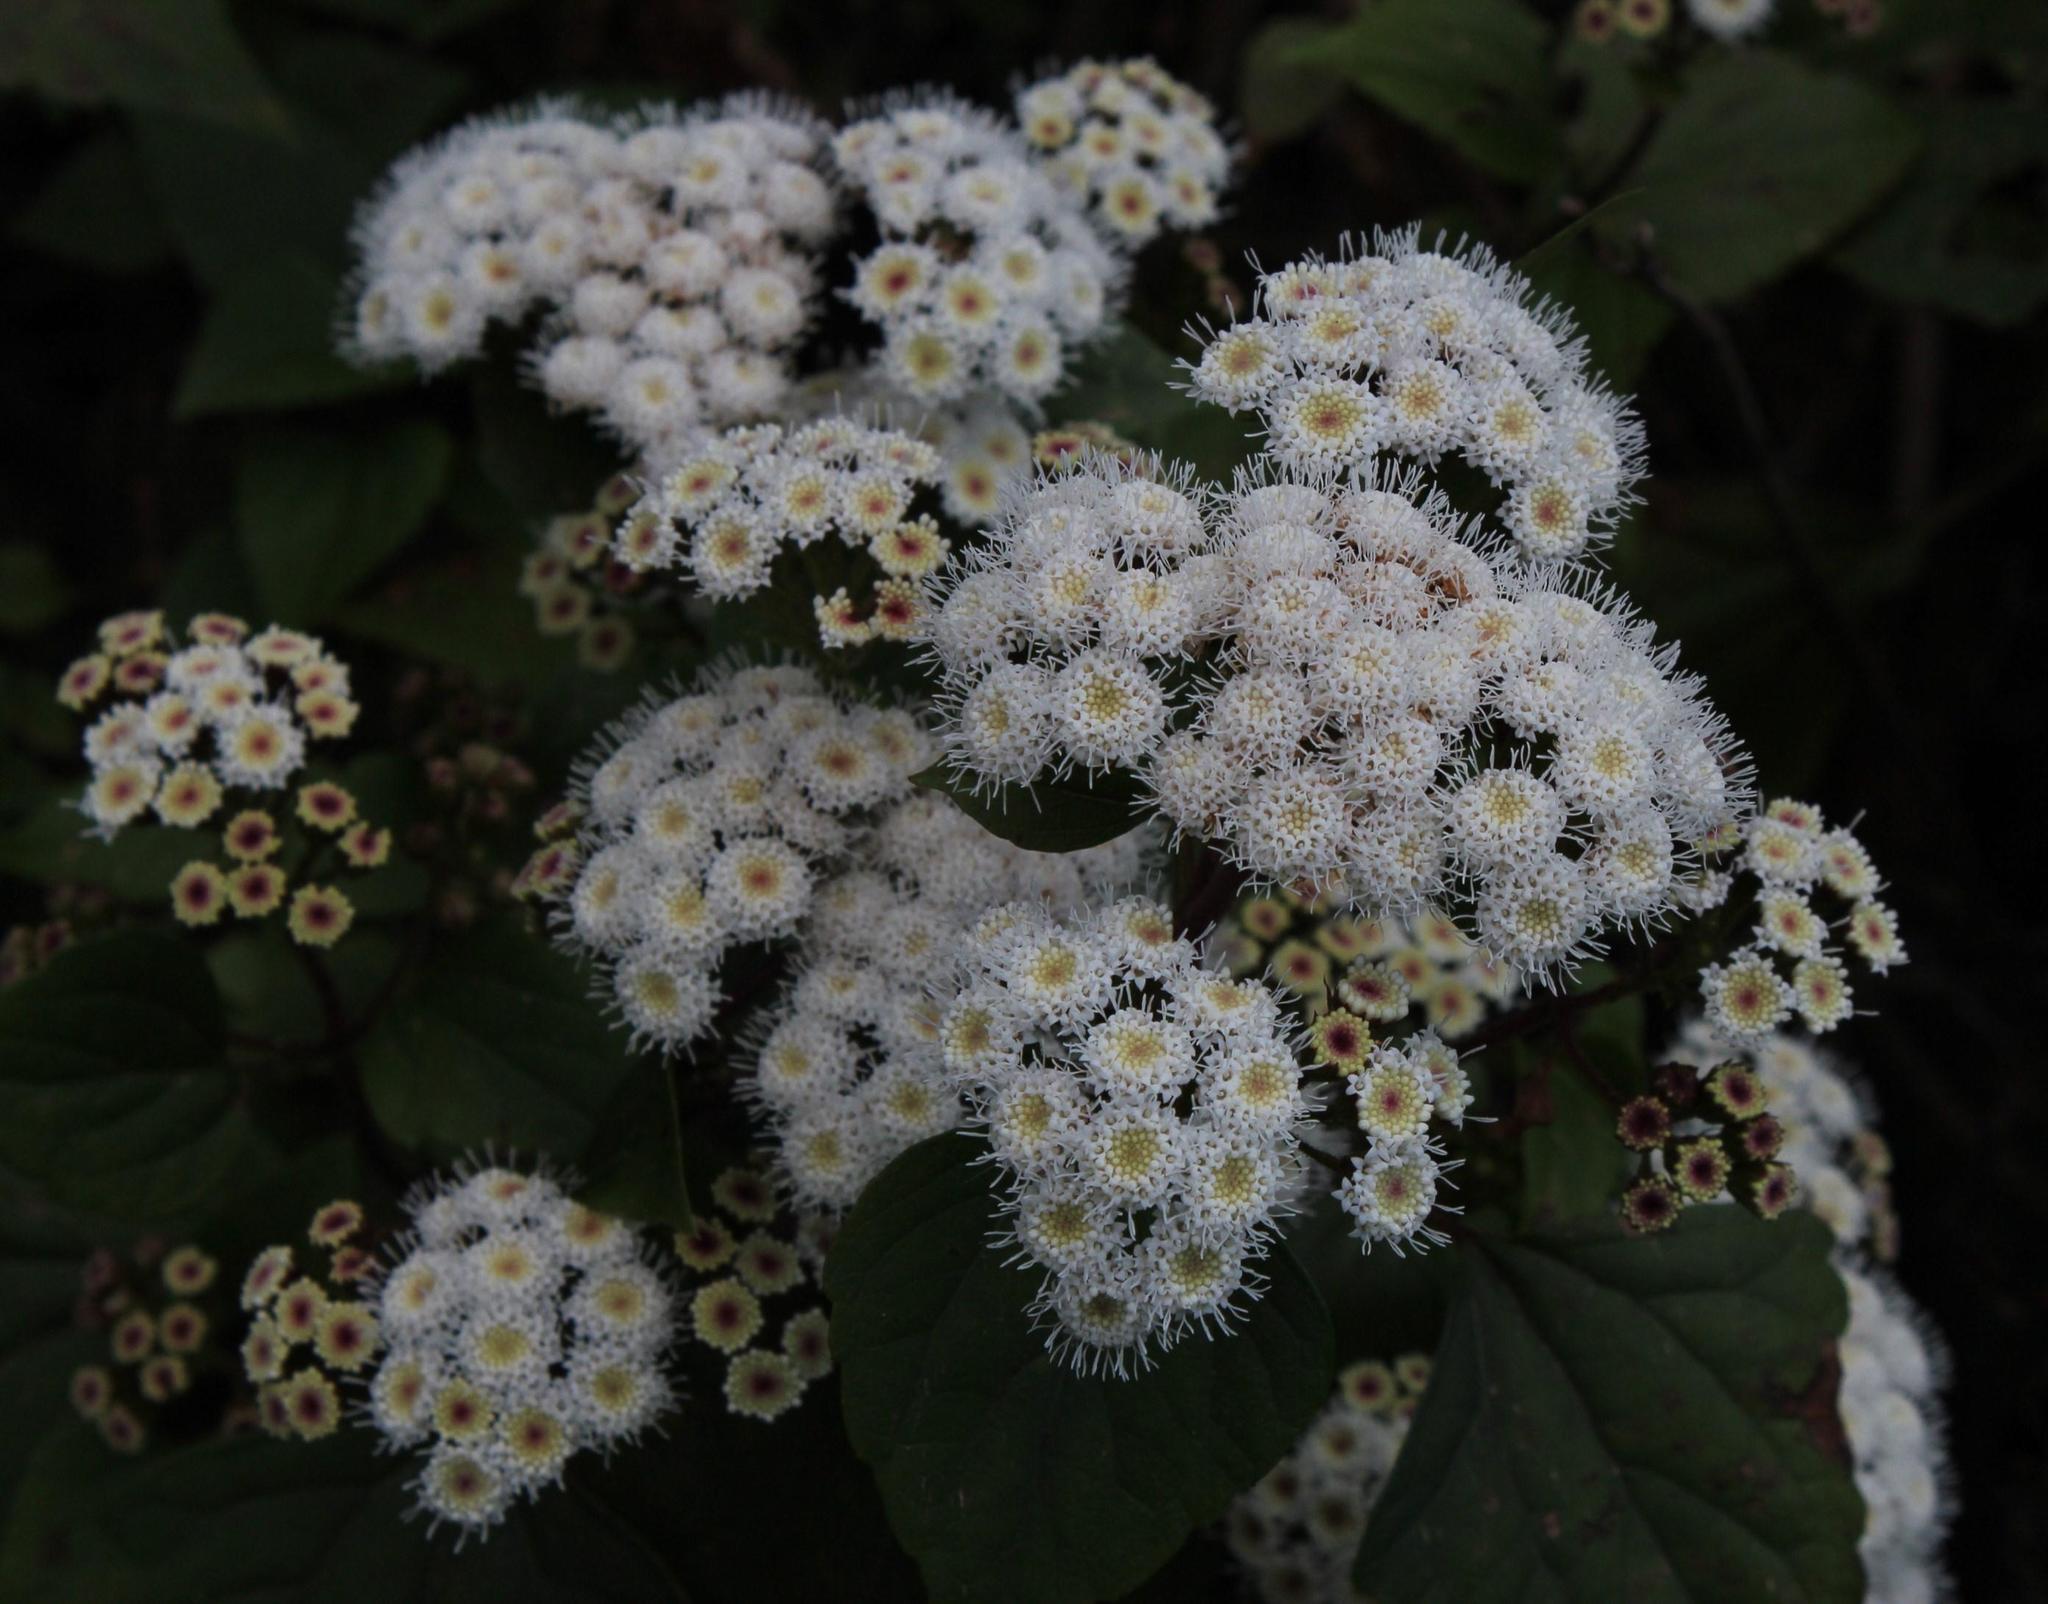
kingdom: Plantae
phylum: Tracheophyta
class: Magnoliopsida
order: Asterales
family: Asteraceae
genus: Ageratina
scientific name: Ageratina adenophora
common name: Sticky snakeroot
